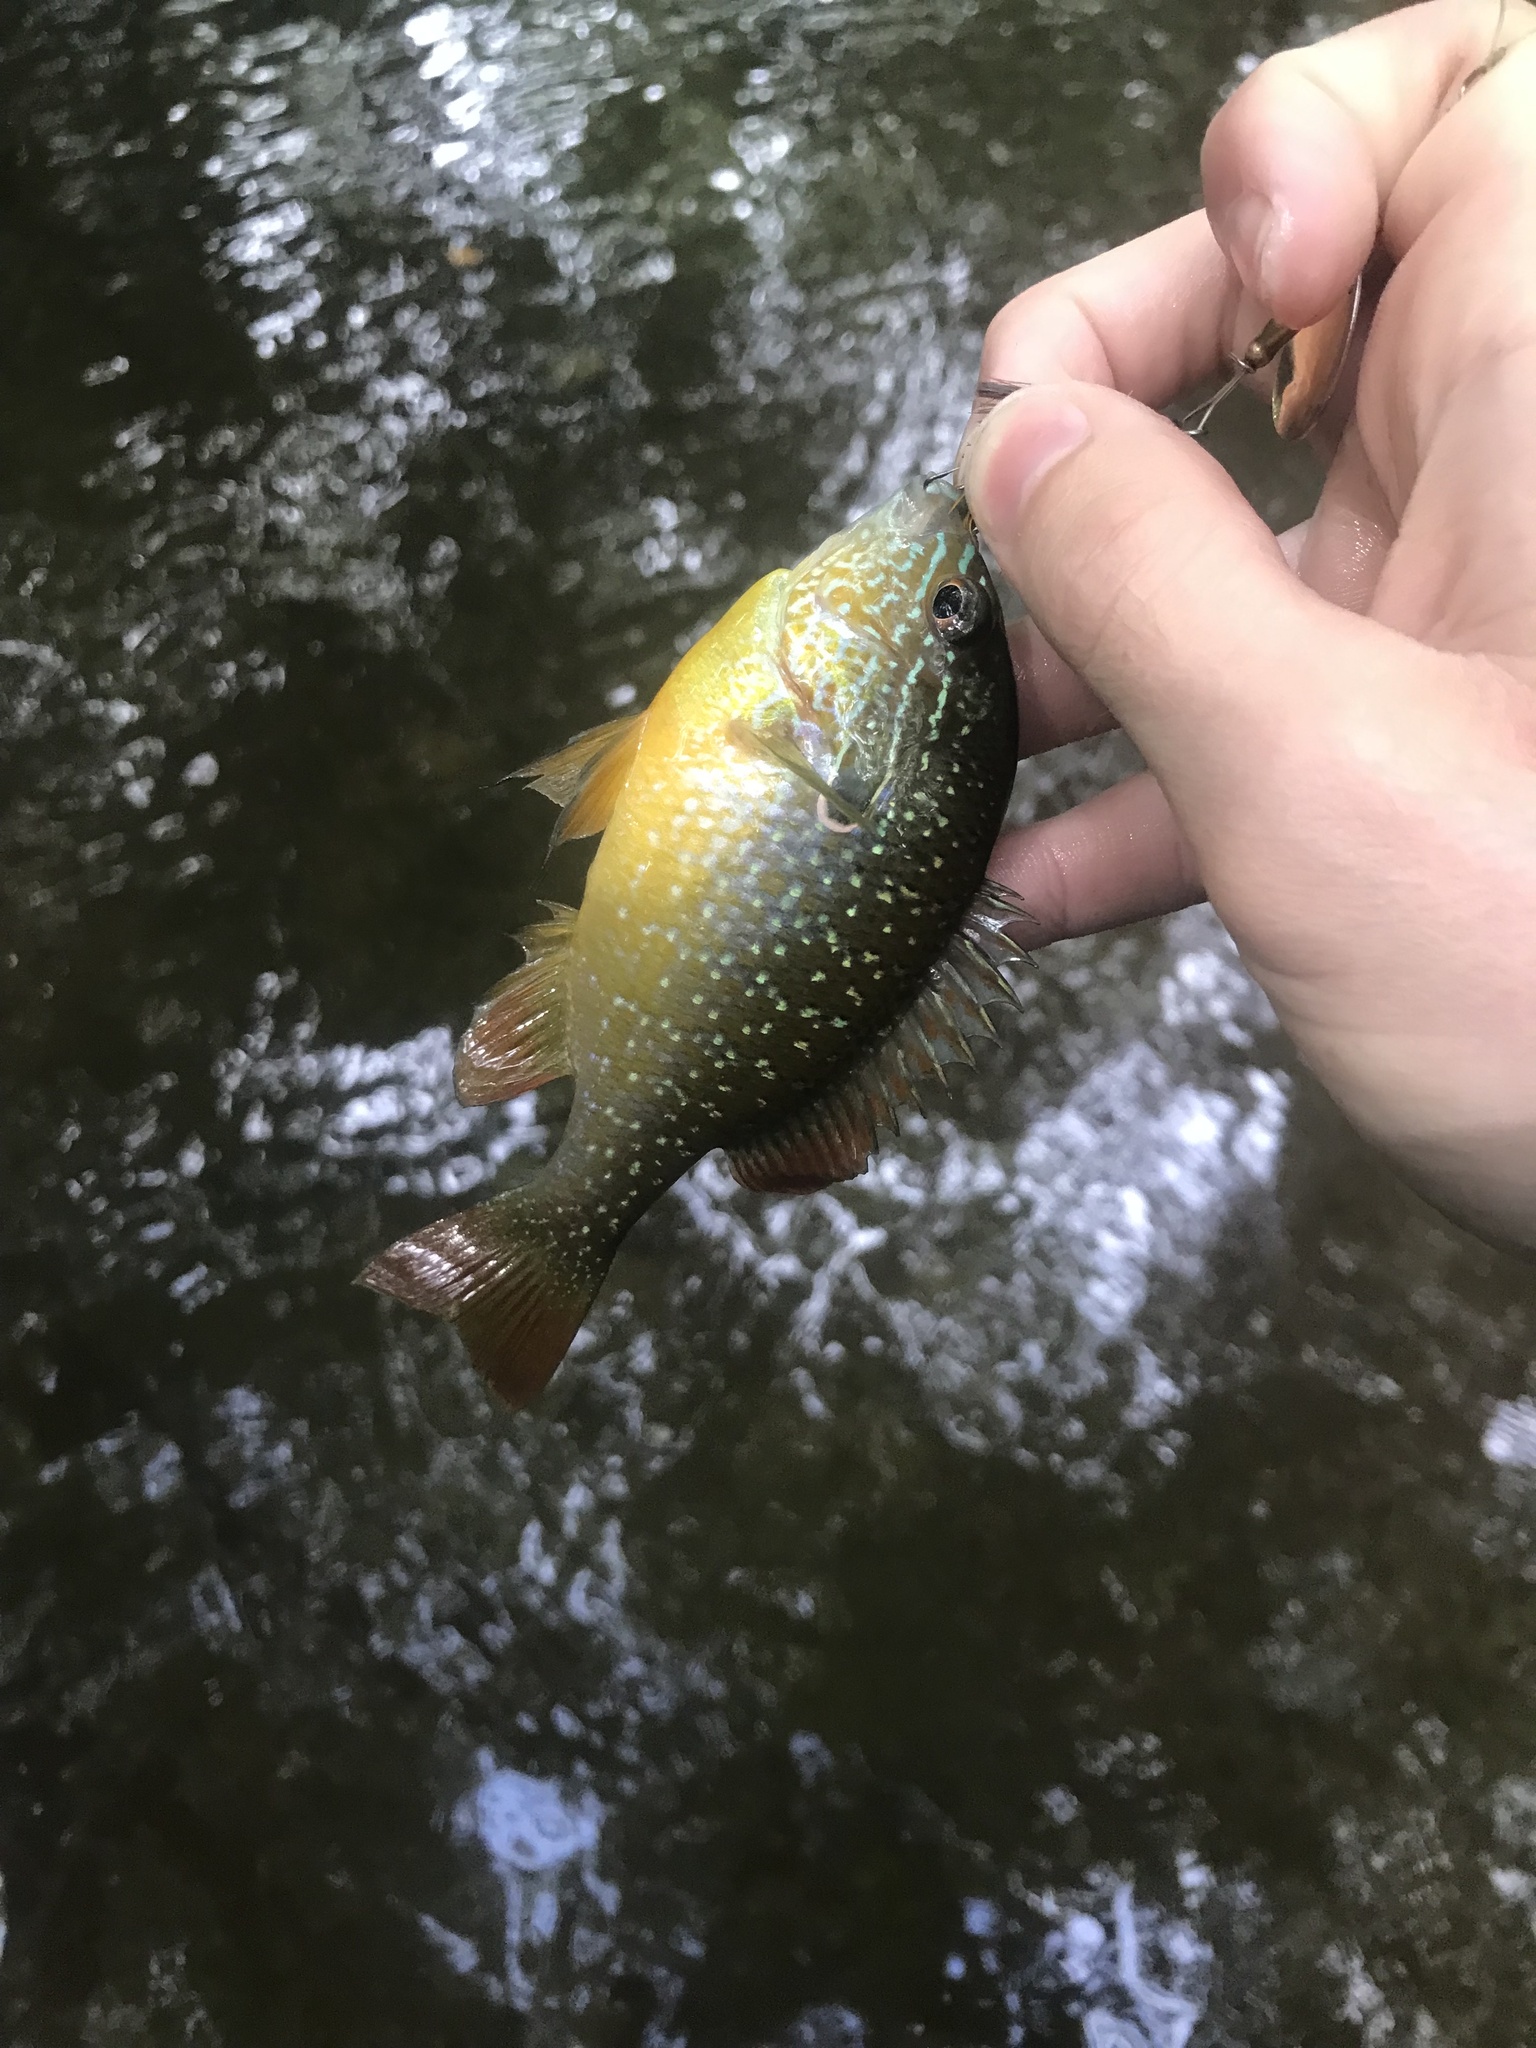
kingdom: Animalia
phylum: Chordata
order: Perciformes
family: Centrarchidae
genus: Lepomis
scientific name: Lepomis megalotis
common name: Longear sunfish
